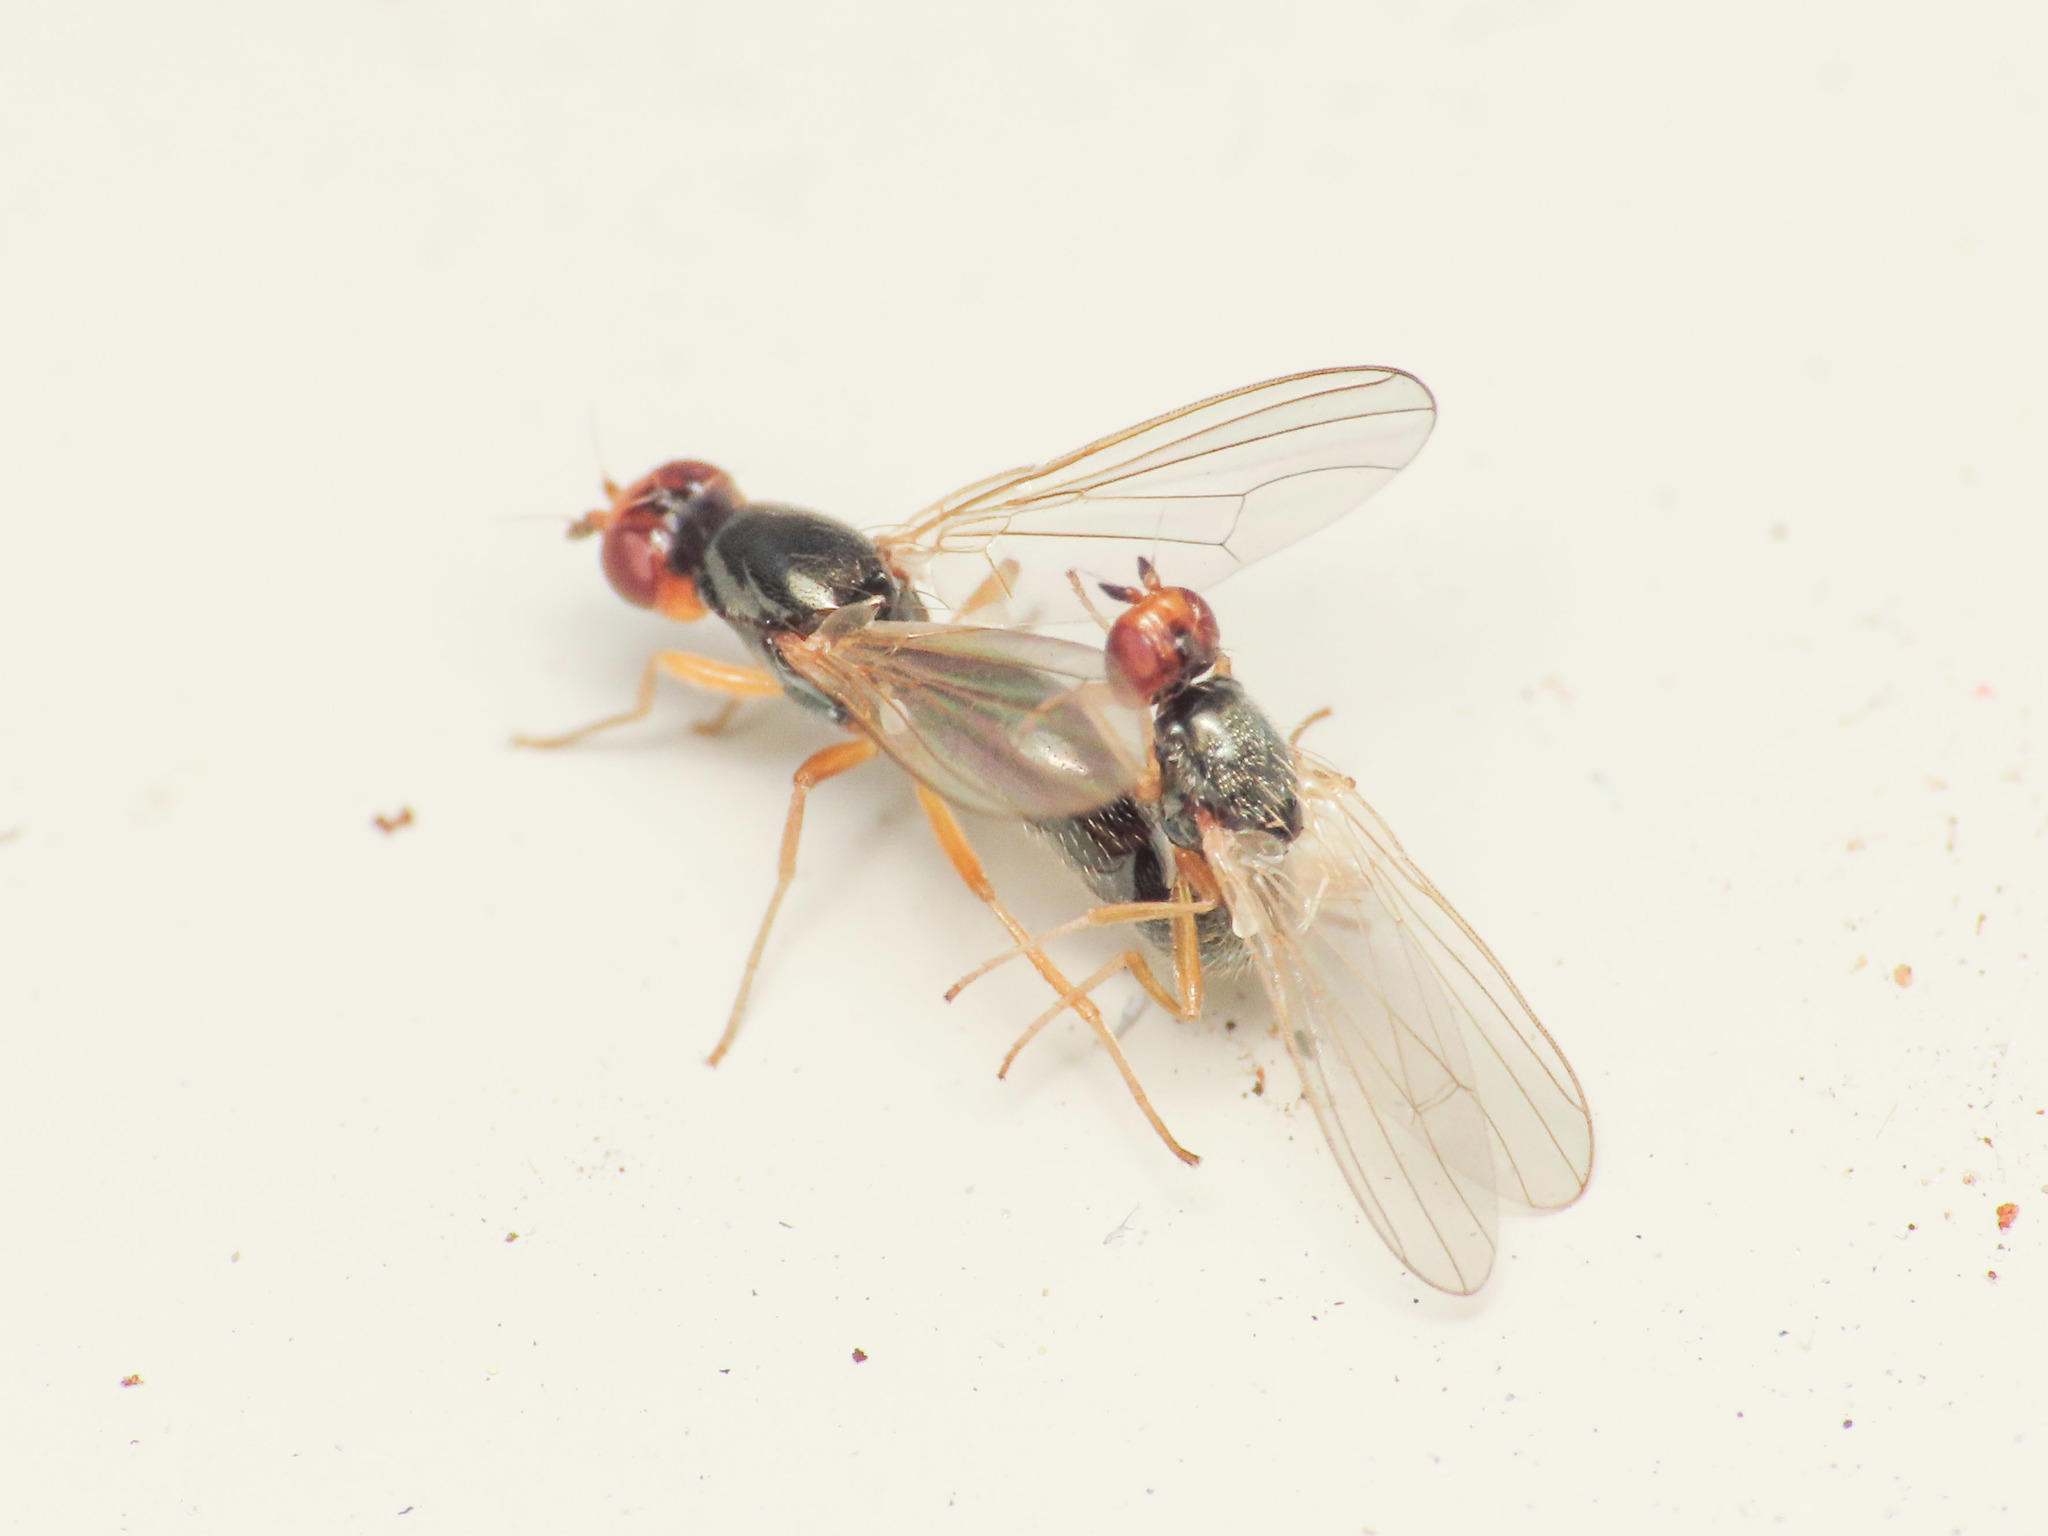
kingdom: Animalia
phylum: Arthropoda
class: Insecta
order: Diptera
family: Psilidae
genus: Psila
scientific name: Psila nigricornis
